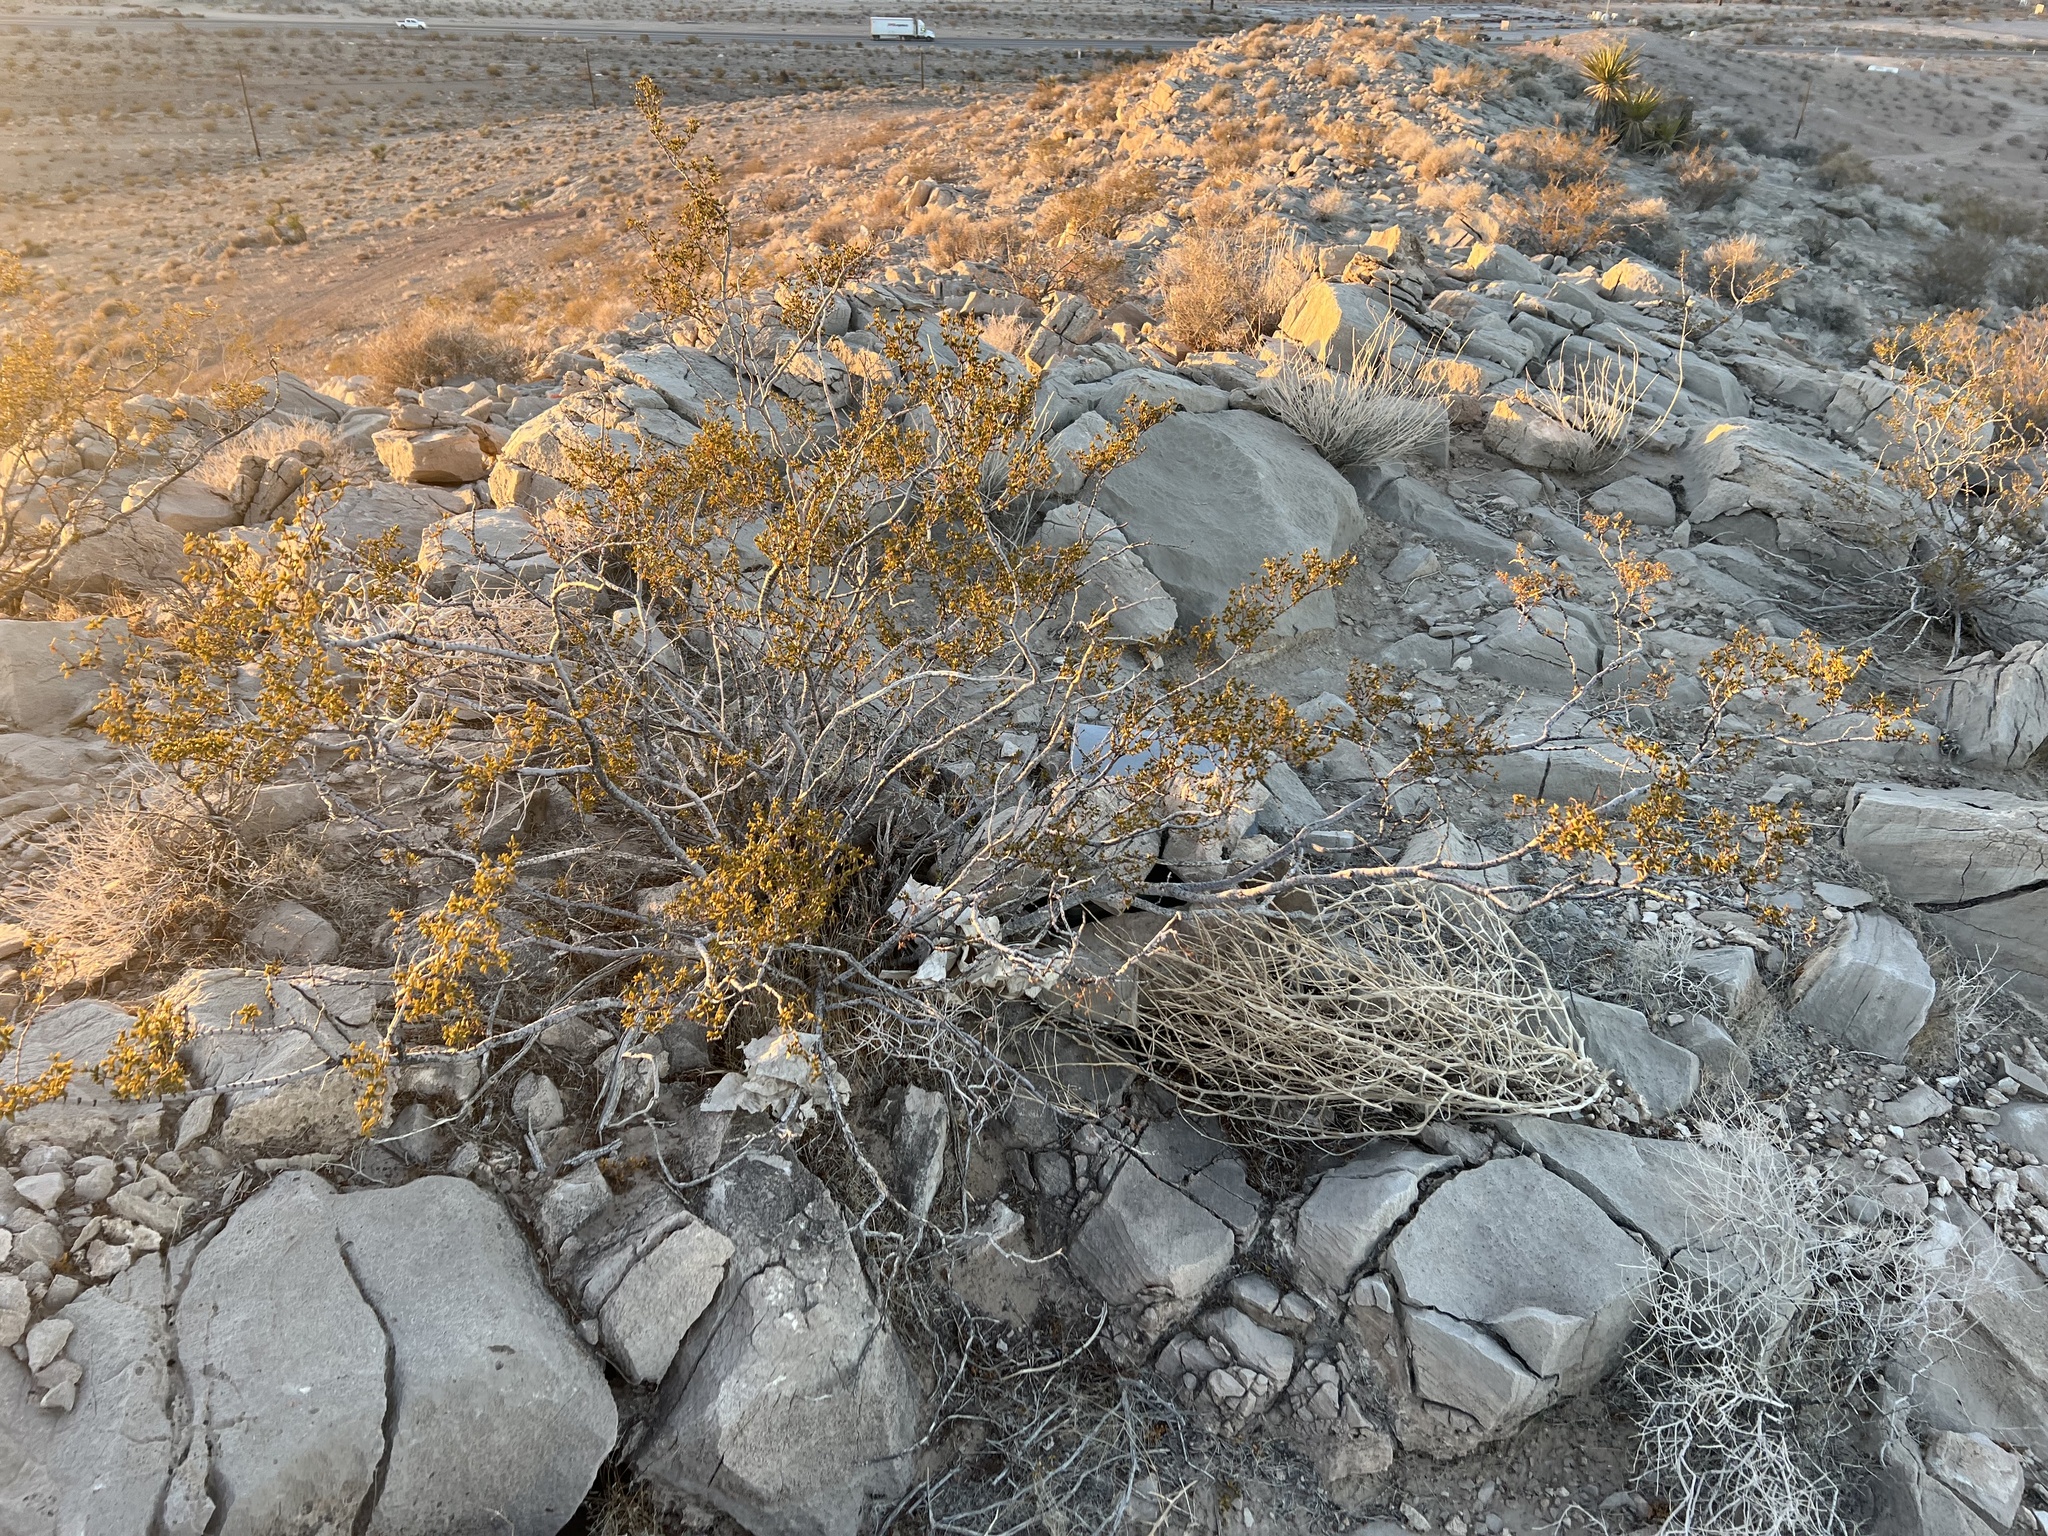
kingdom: Plantae
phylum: Tracheophyta
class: Magnoliopsida
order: Zygophyllales
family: Zygophyllaceae
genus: Larrea
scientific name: Larrea tridentata
